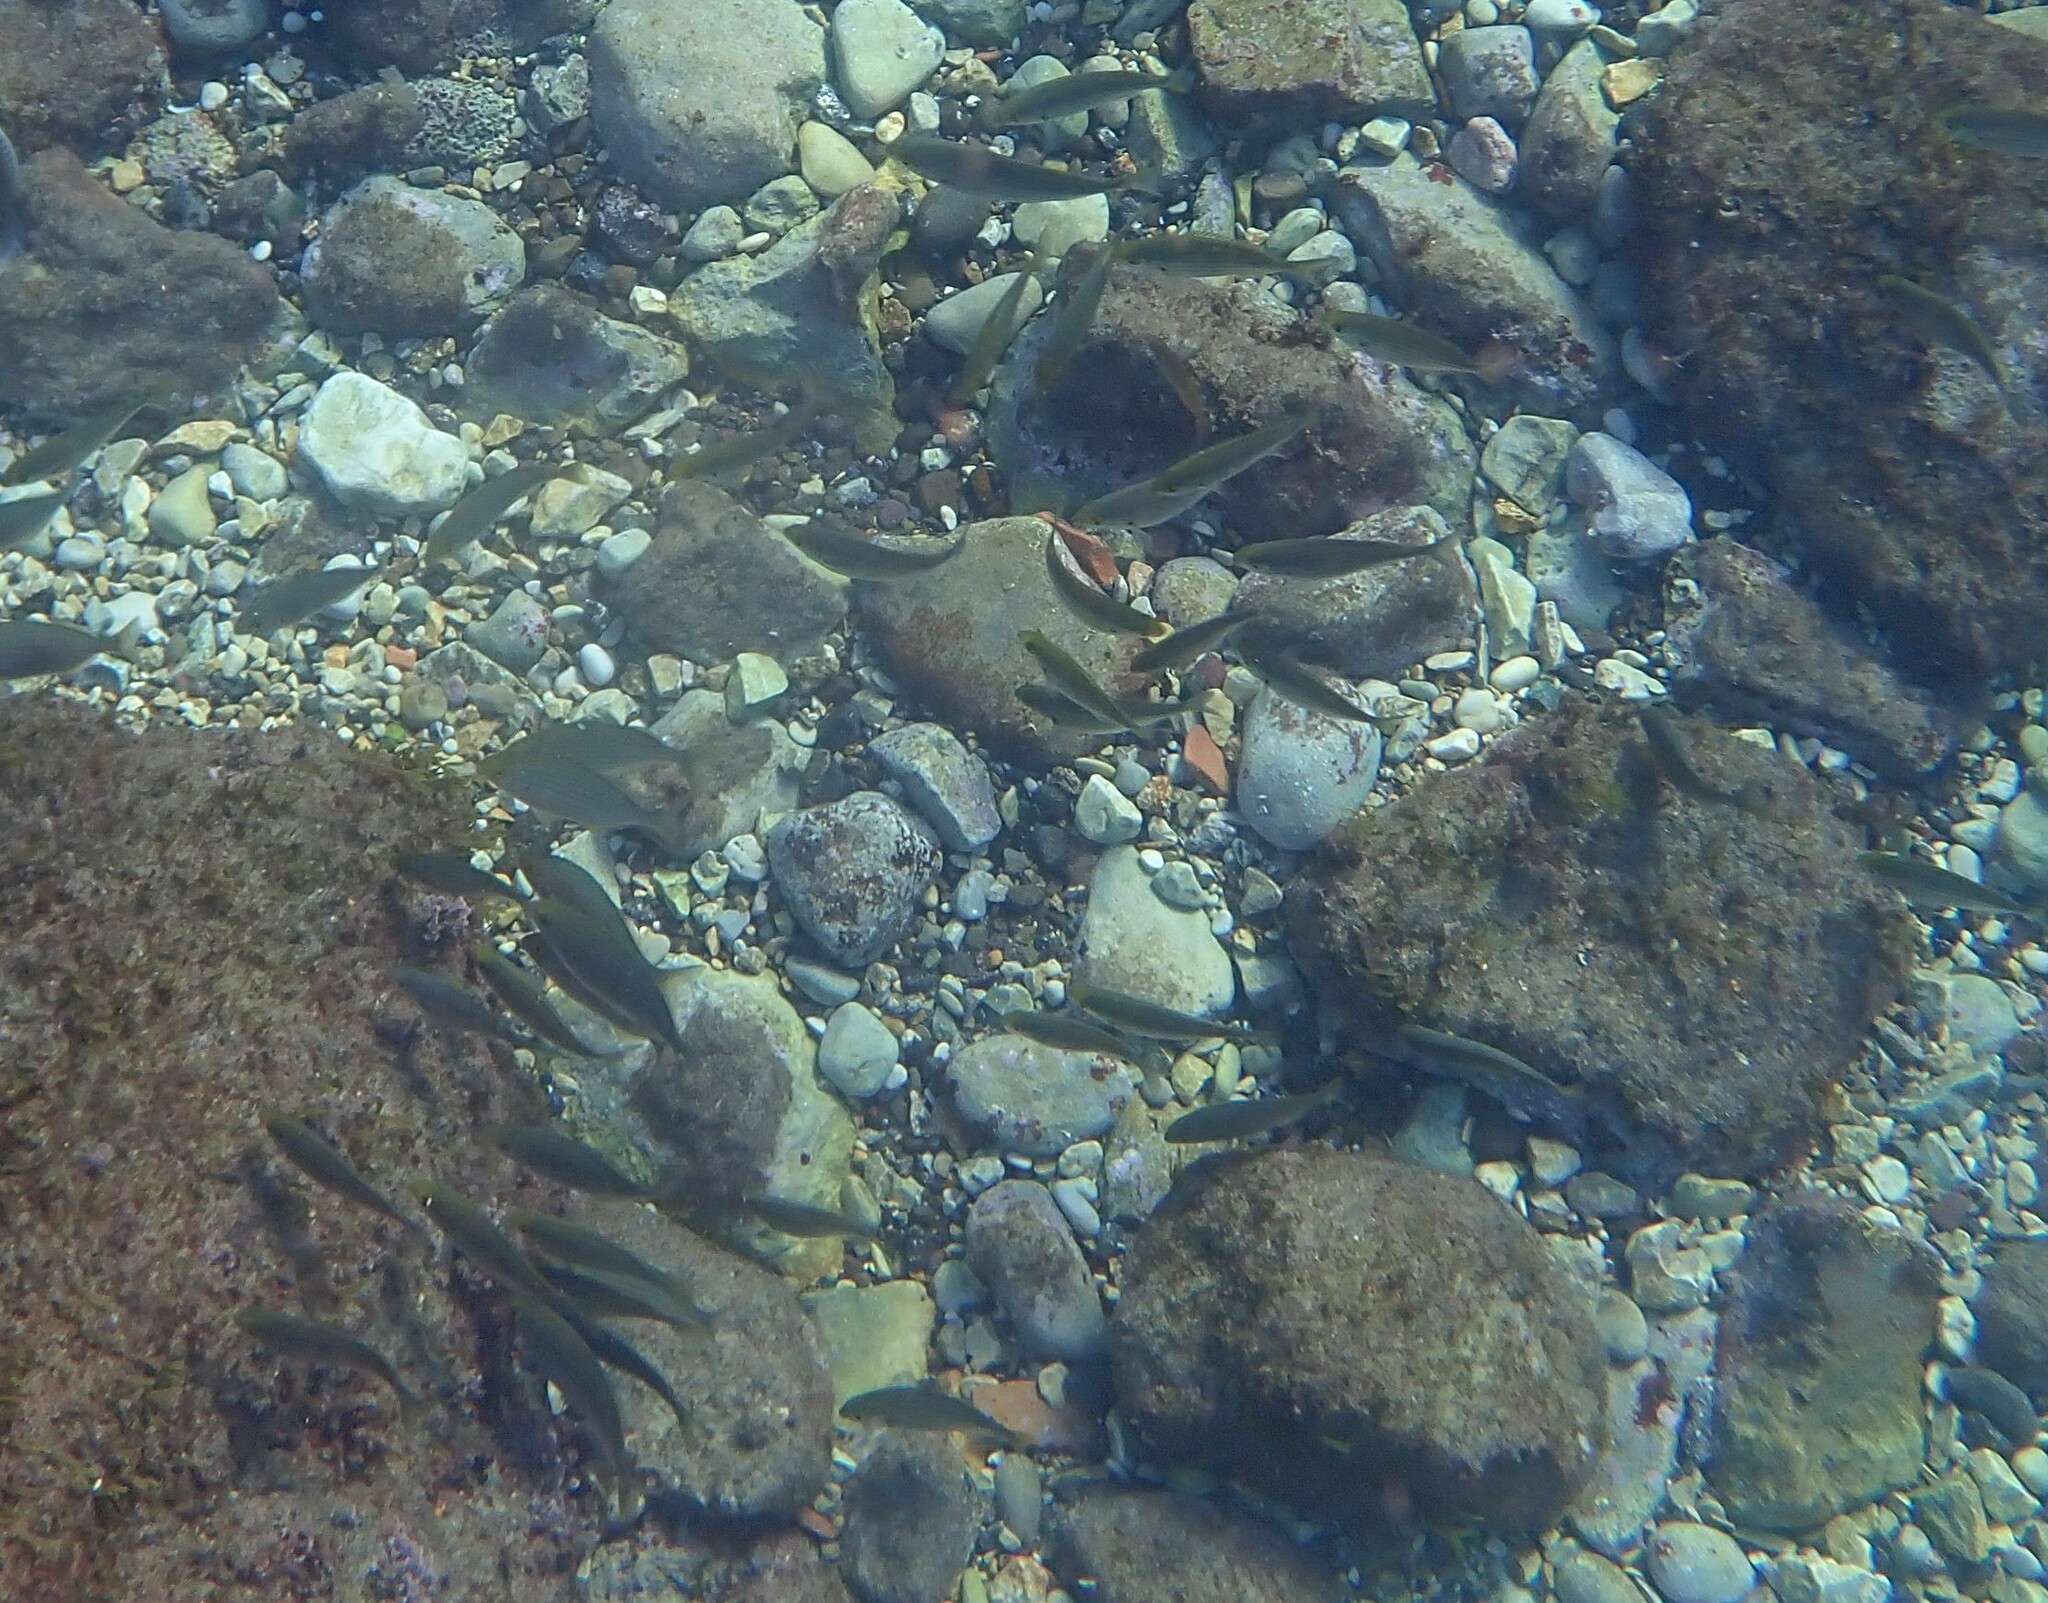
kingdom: Animalia
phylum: Chordata
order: Perciformes
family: Sparidae
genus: Sarpa
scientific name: Sarpa salpa
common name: Salema
